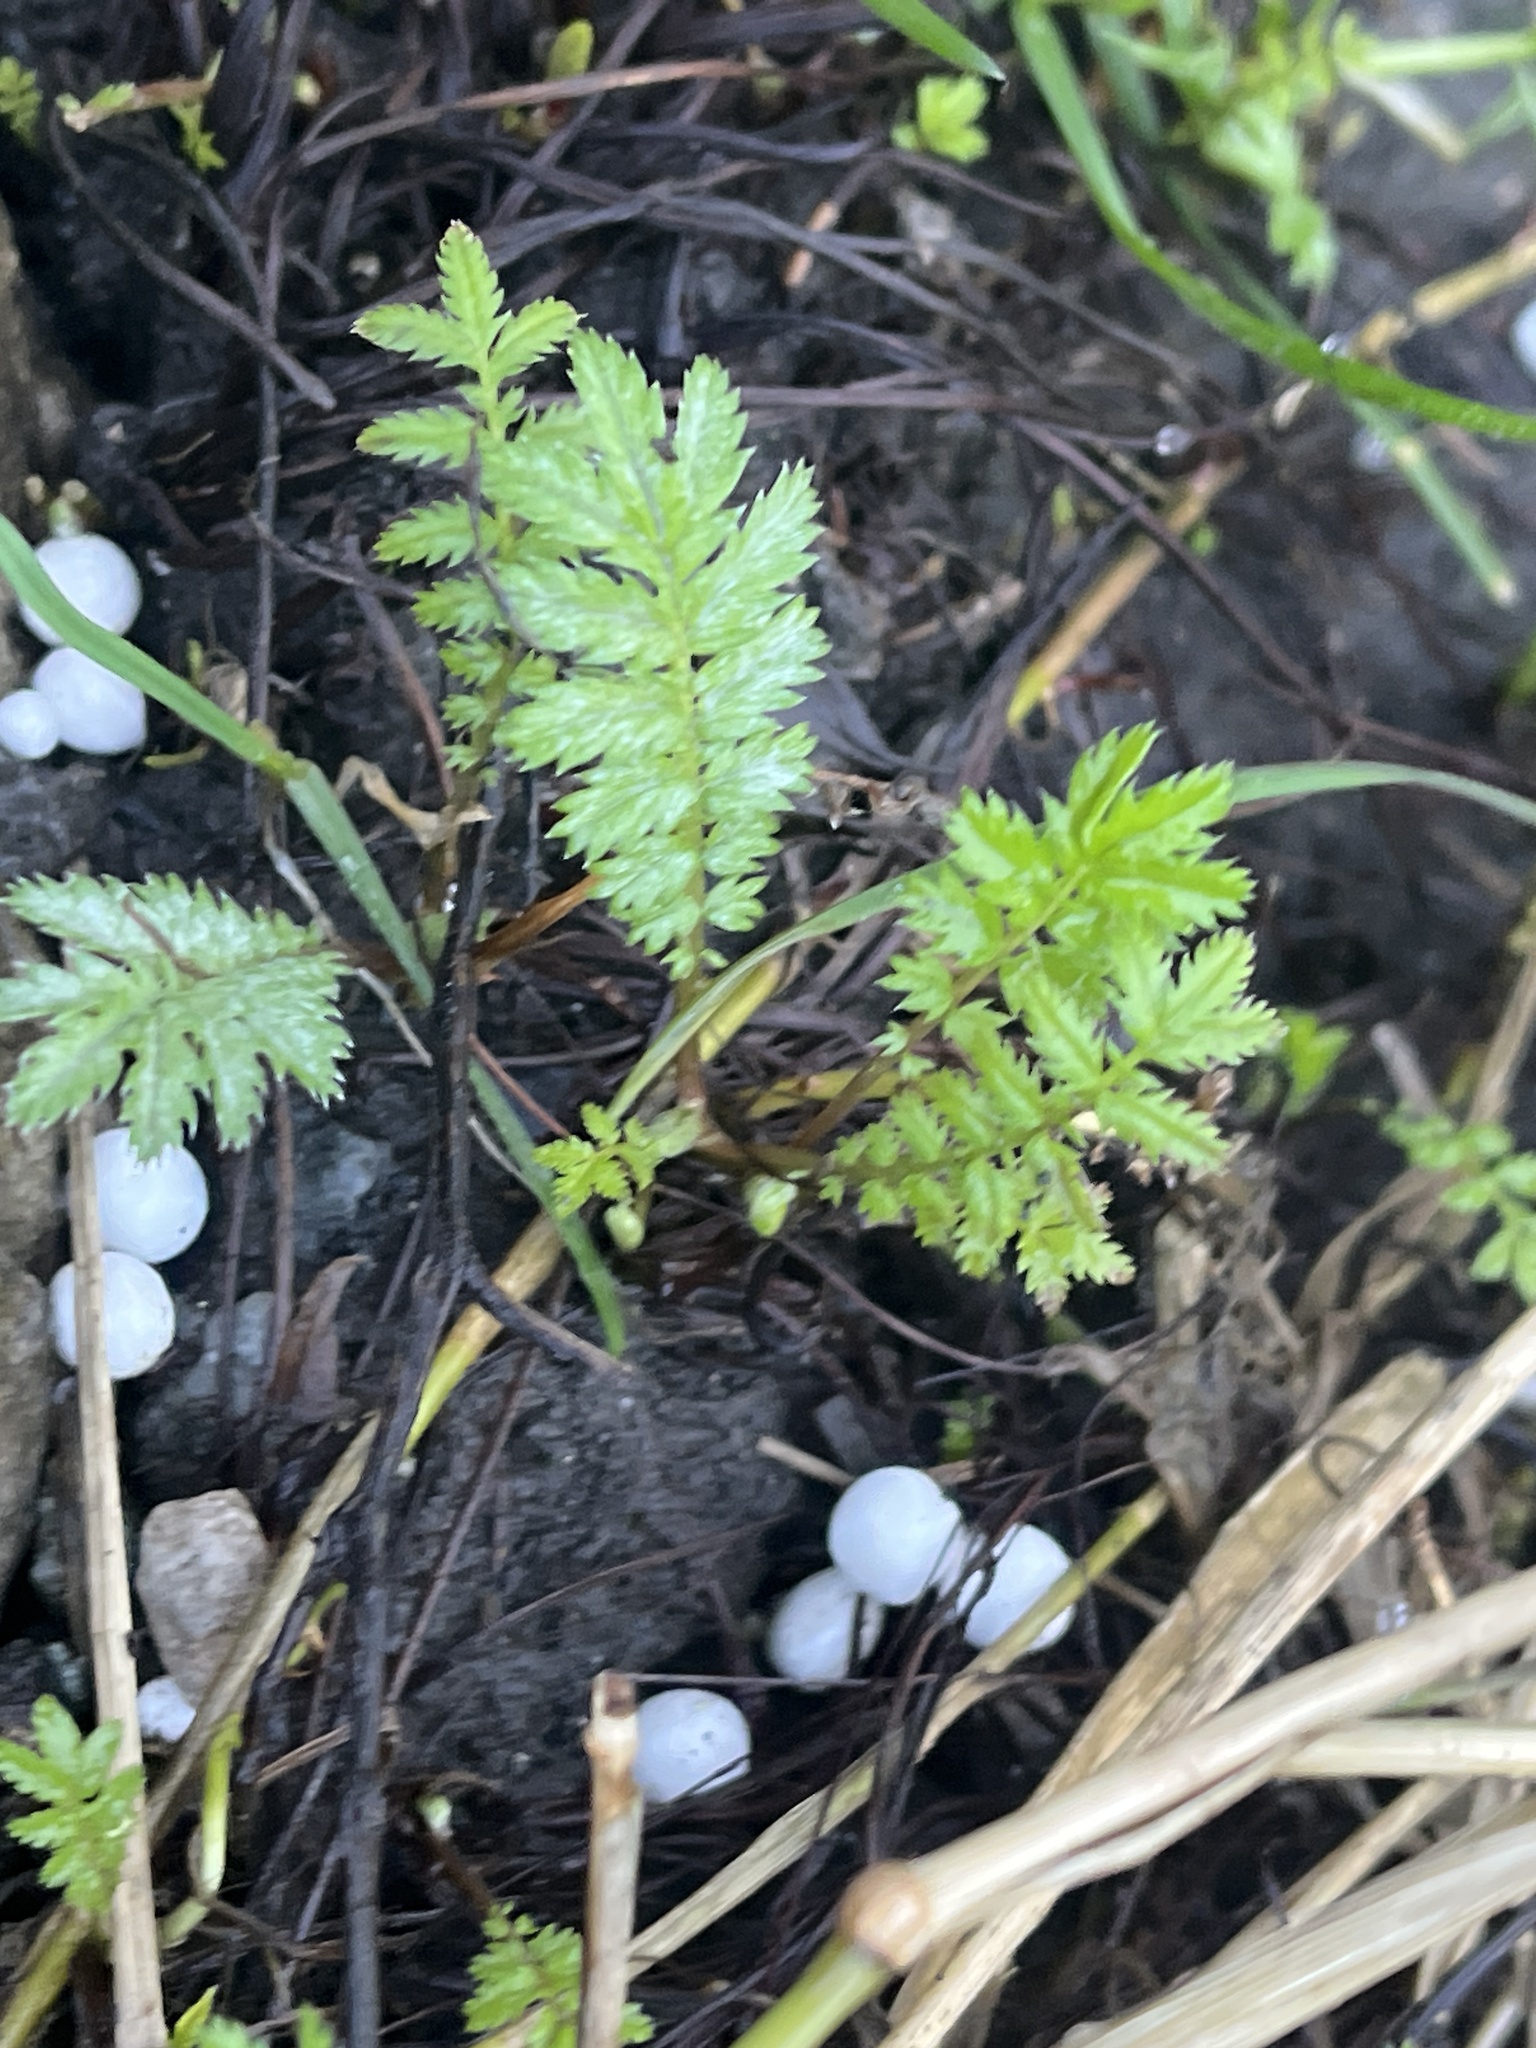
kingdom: Plantae
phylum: Tracheophyta
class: Magnoliopsida
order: Rosales
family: Rosaceae
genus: Argentina
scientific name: Argentina anserina
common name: Common silverweed
